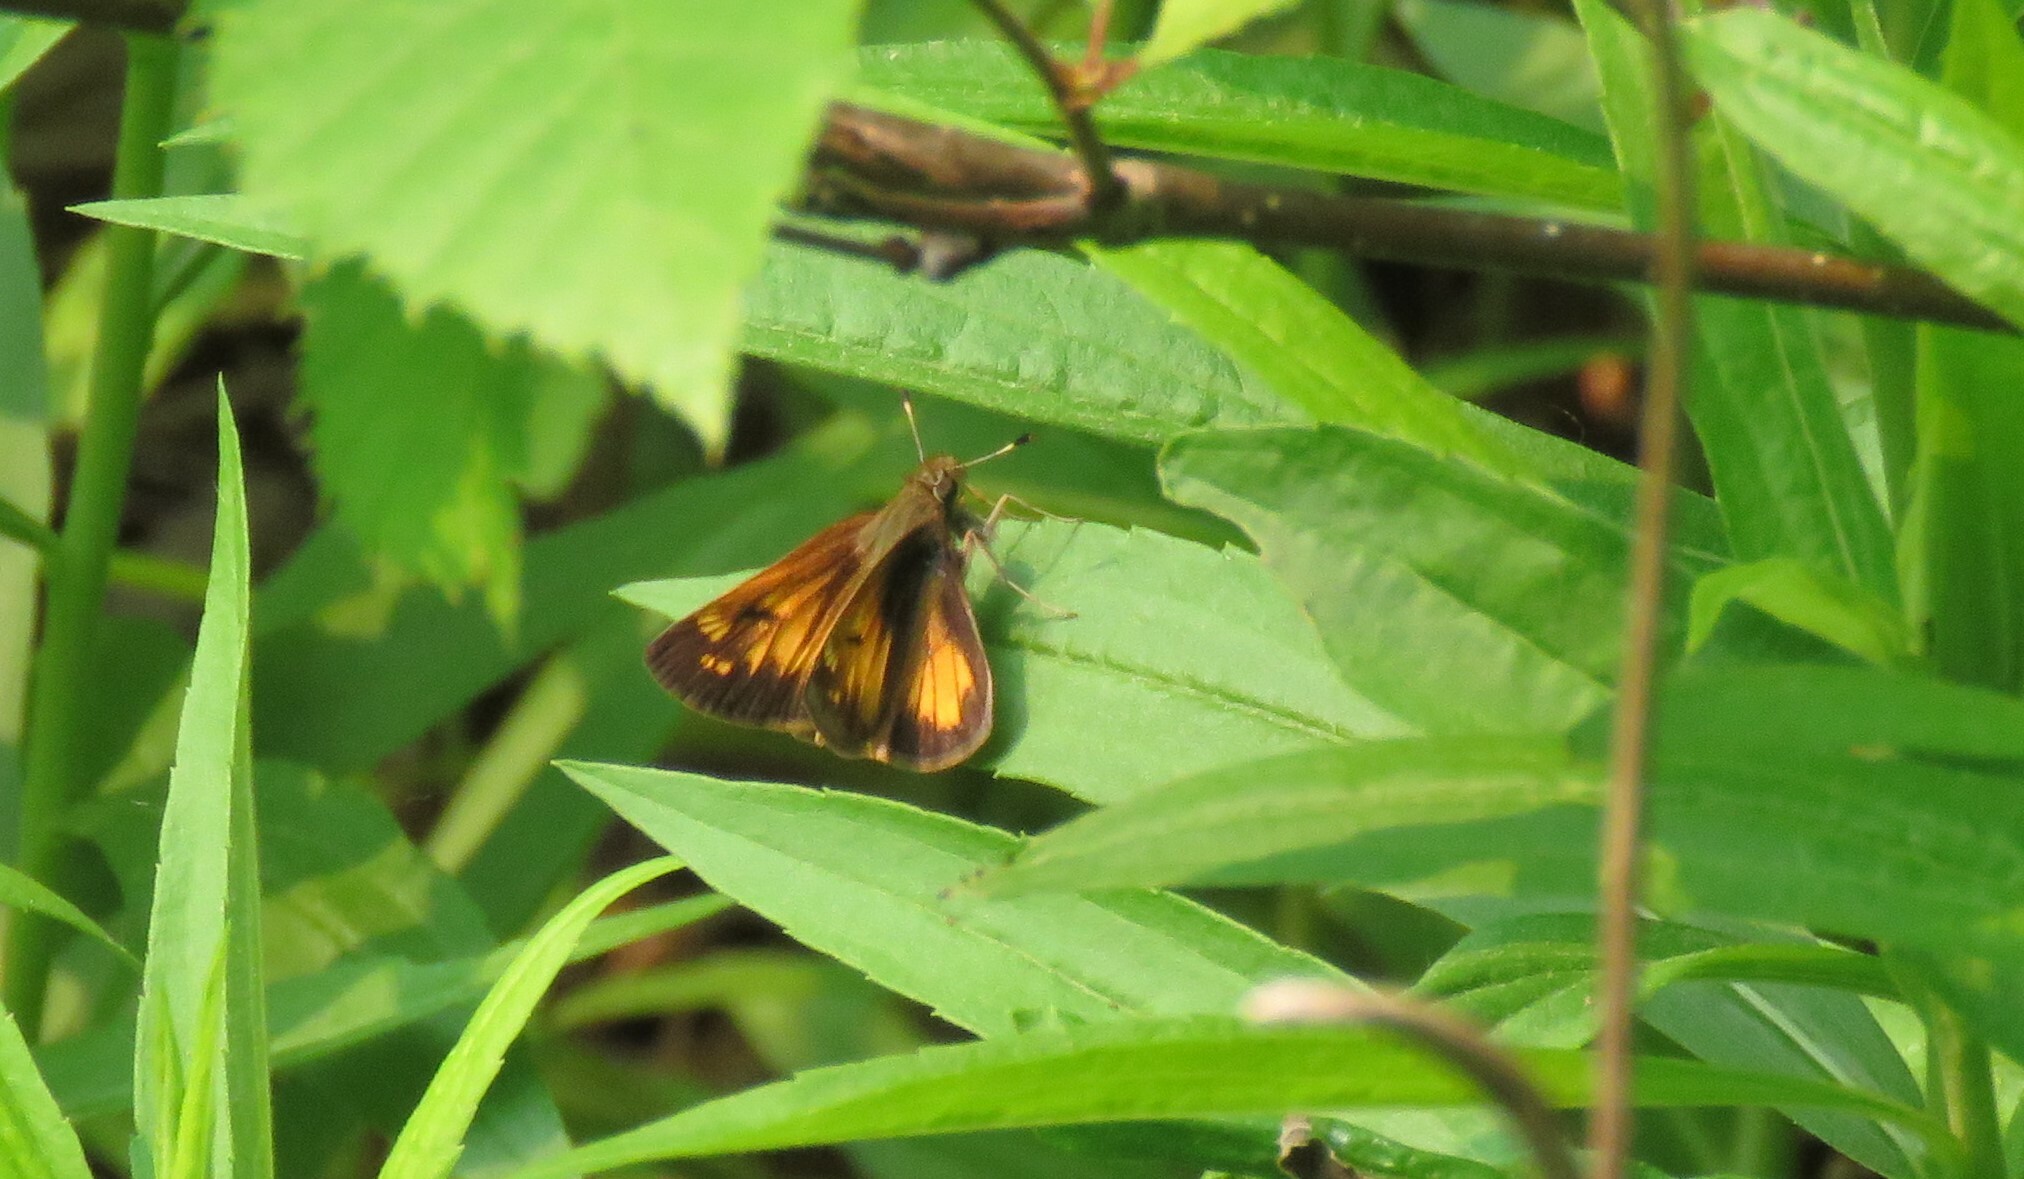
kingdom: Animalia
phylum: Arthropoda
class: Insecta
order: Lepidoptera
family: Hesperiidae
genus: Lon
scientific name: Lon hobomok
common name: Hobomok skipper
